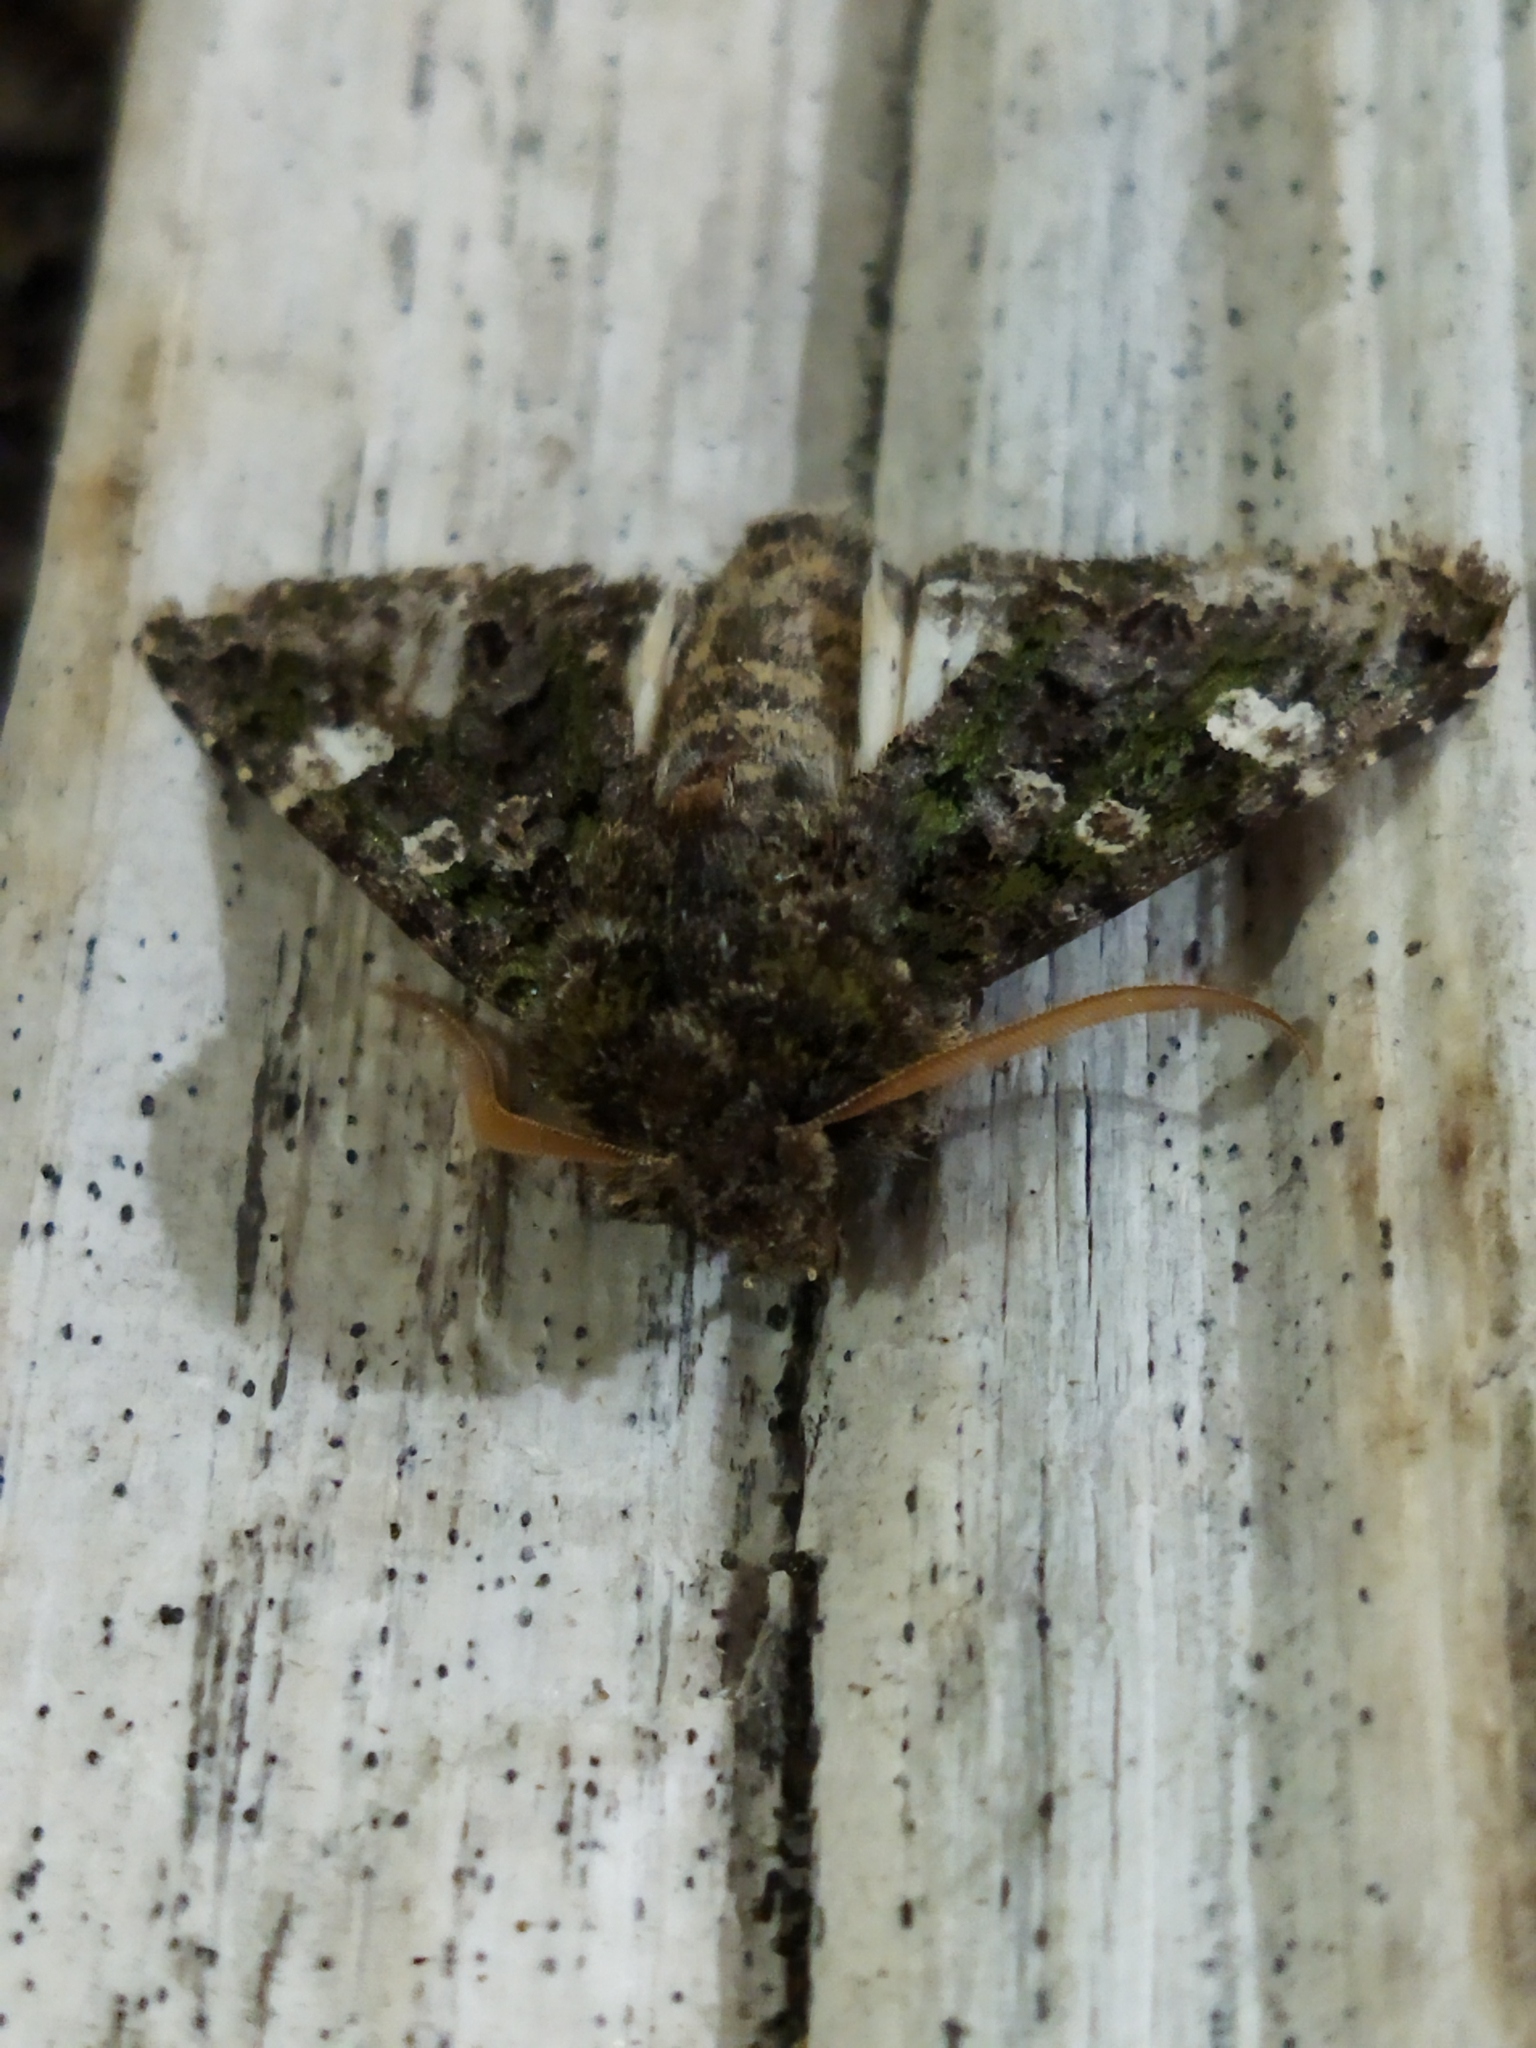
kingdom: Animalia
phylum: Arthropoda
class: Insecta
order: Lepidoptera
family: Noctuidae
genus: Valeria
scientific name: Valeria oleagina
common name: Green-brindled dot
